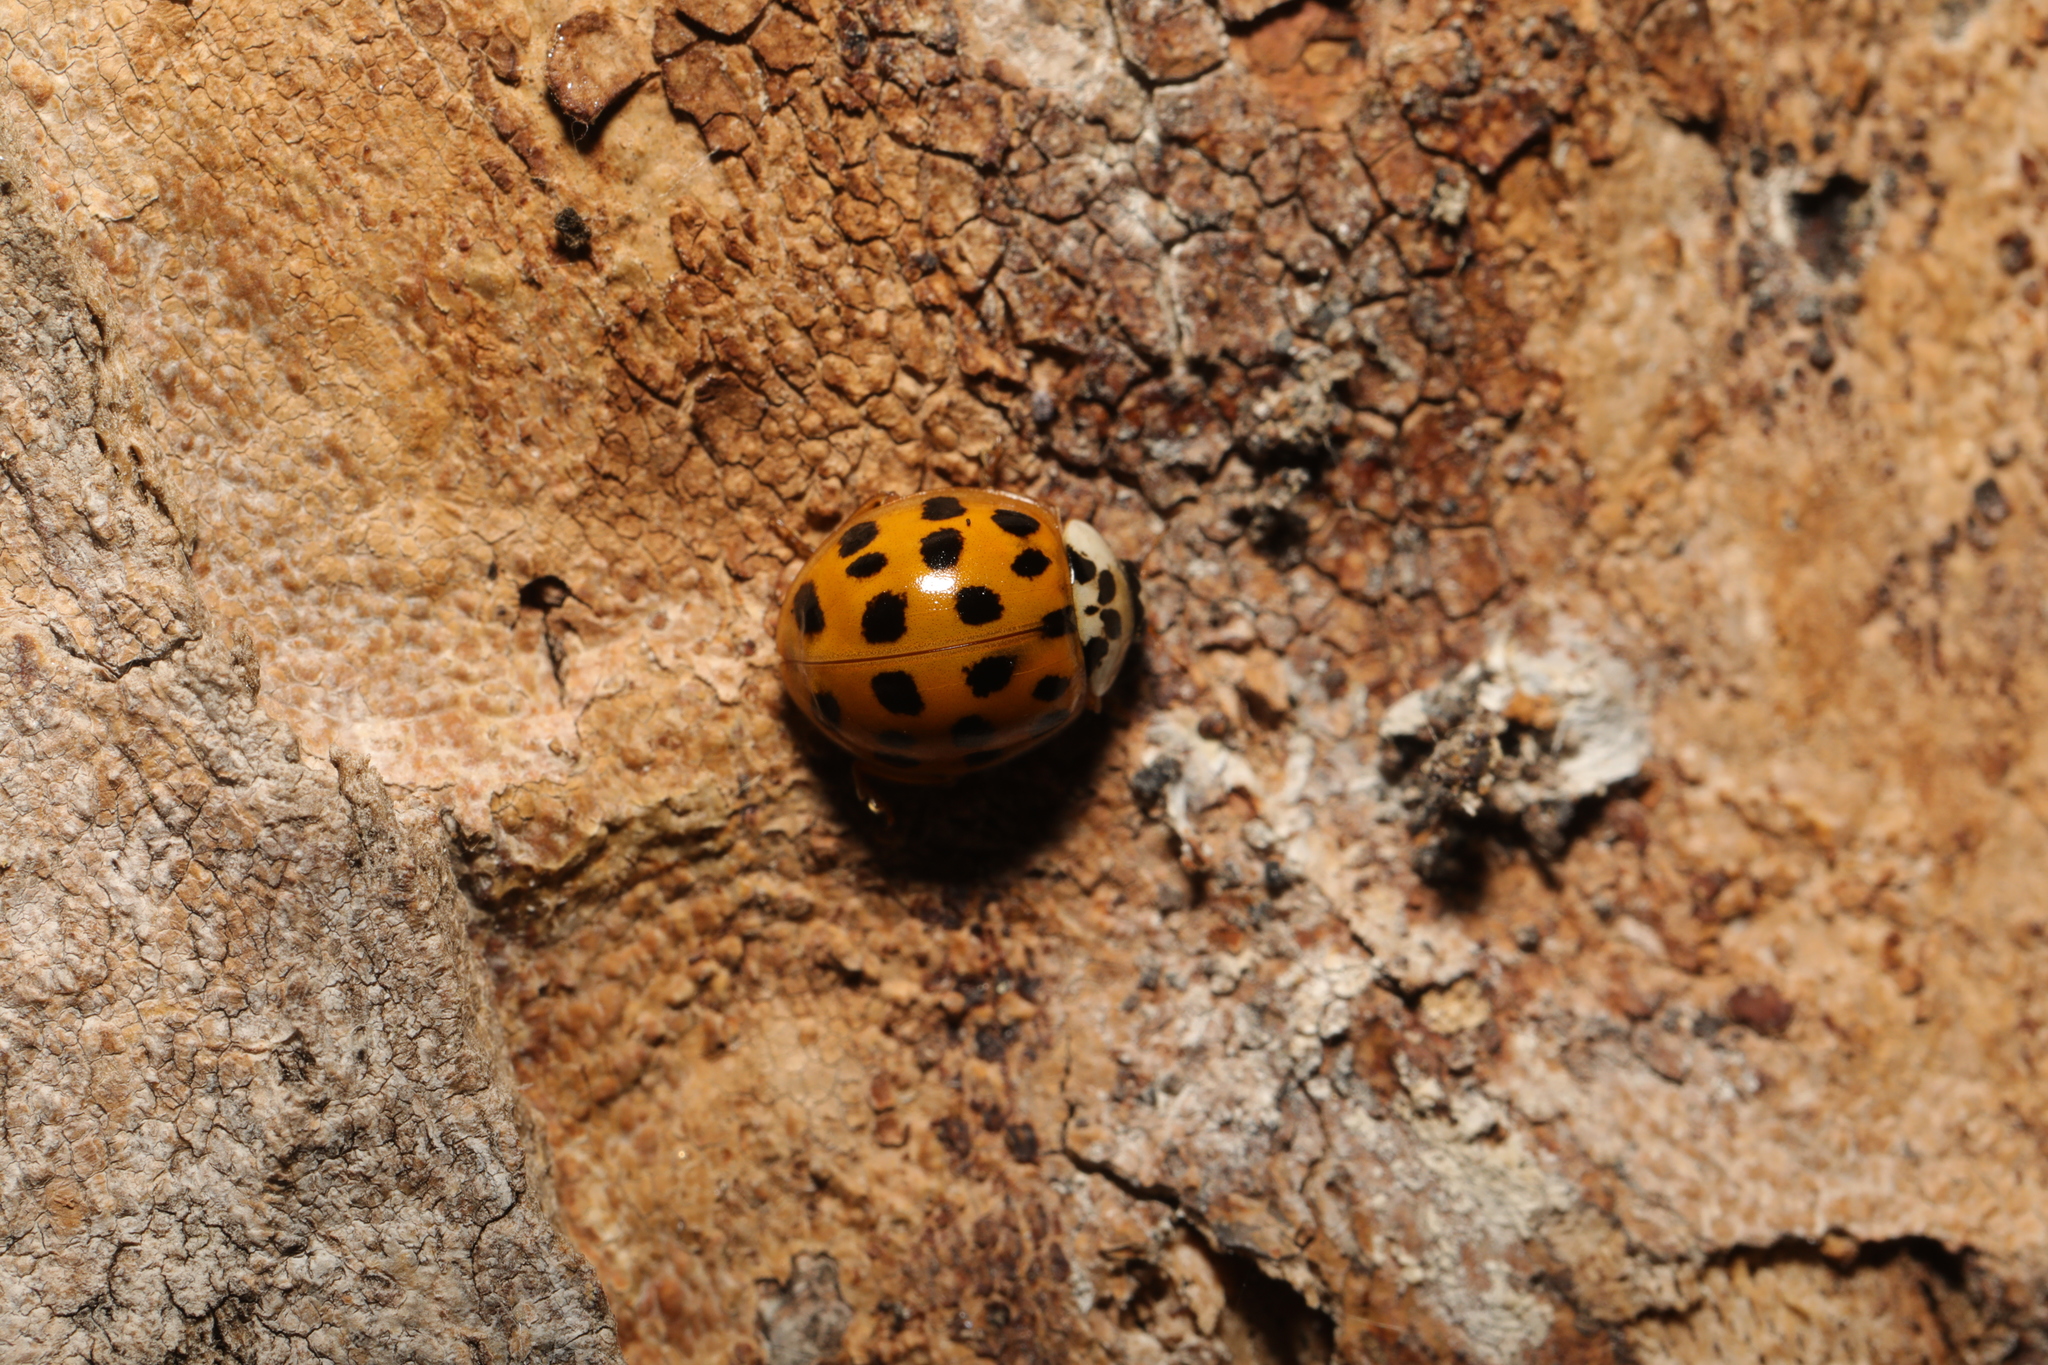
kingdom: Animalia
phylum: Arthropoda
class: Insecta
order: Coleoptera
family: Coccinellidae
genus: Harmonia
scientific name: Harmonia axyridis
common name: Harlequin ladybird
